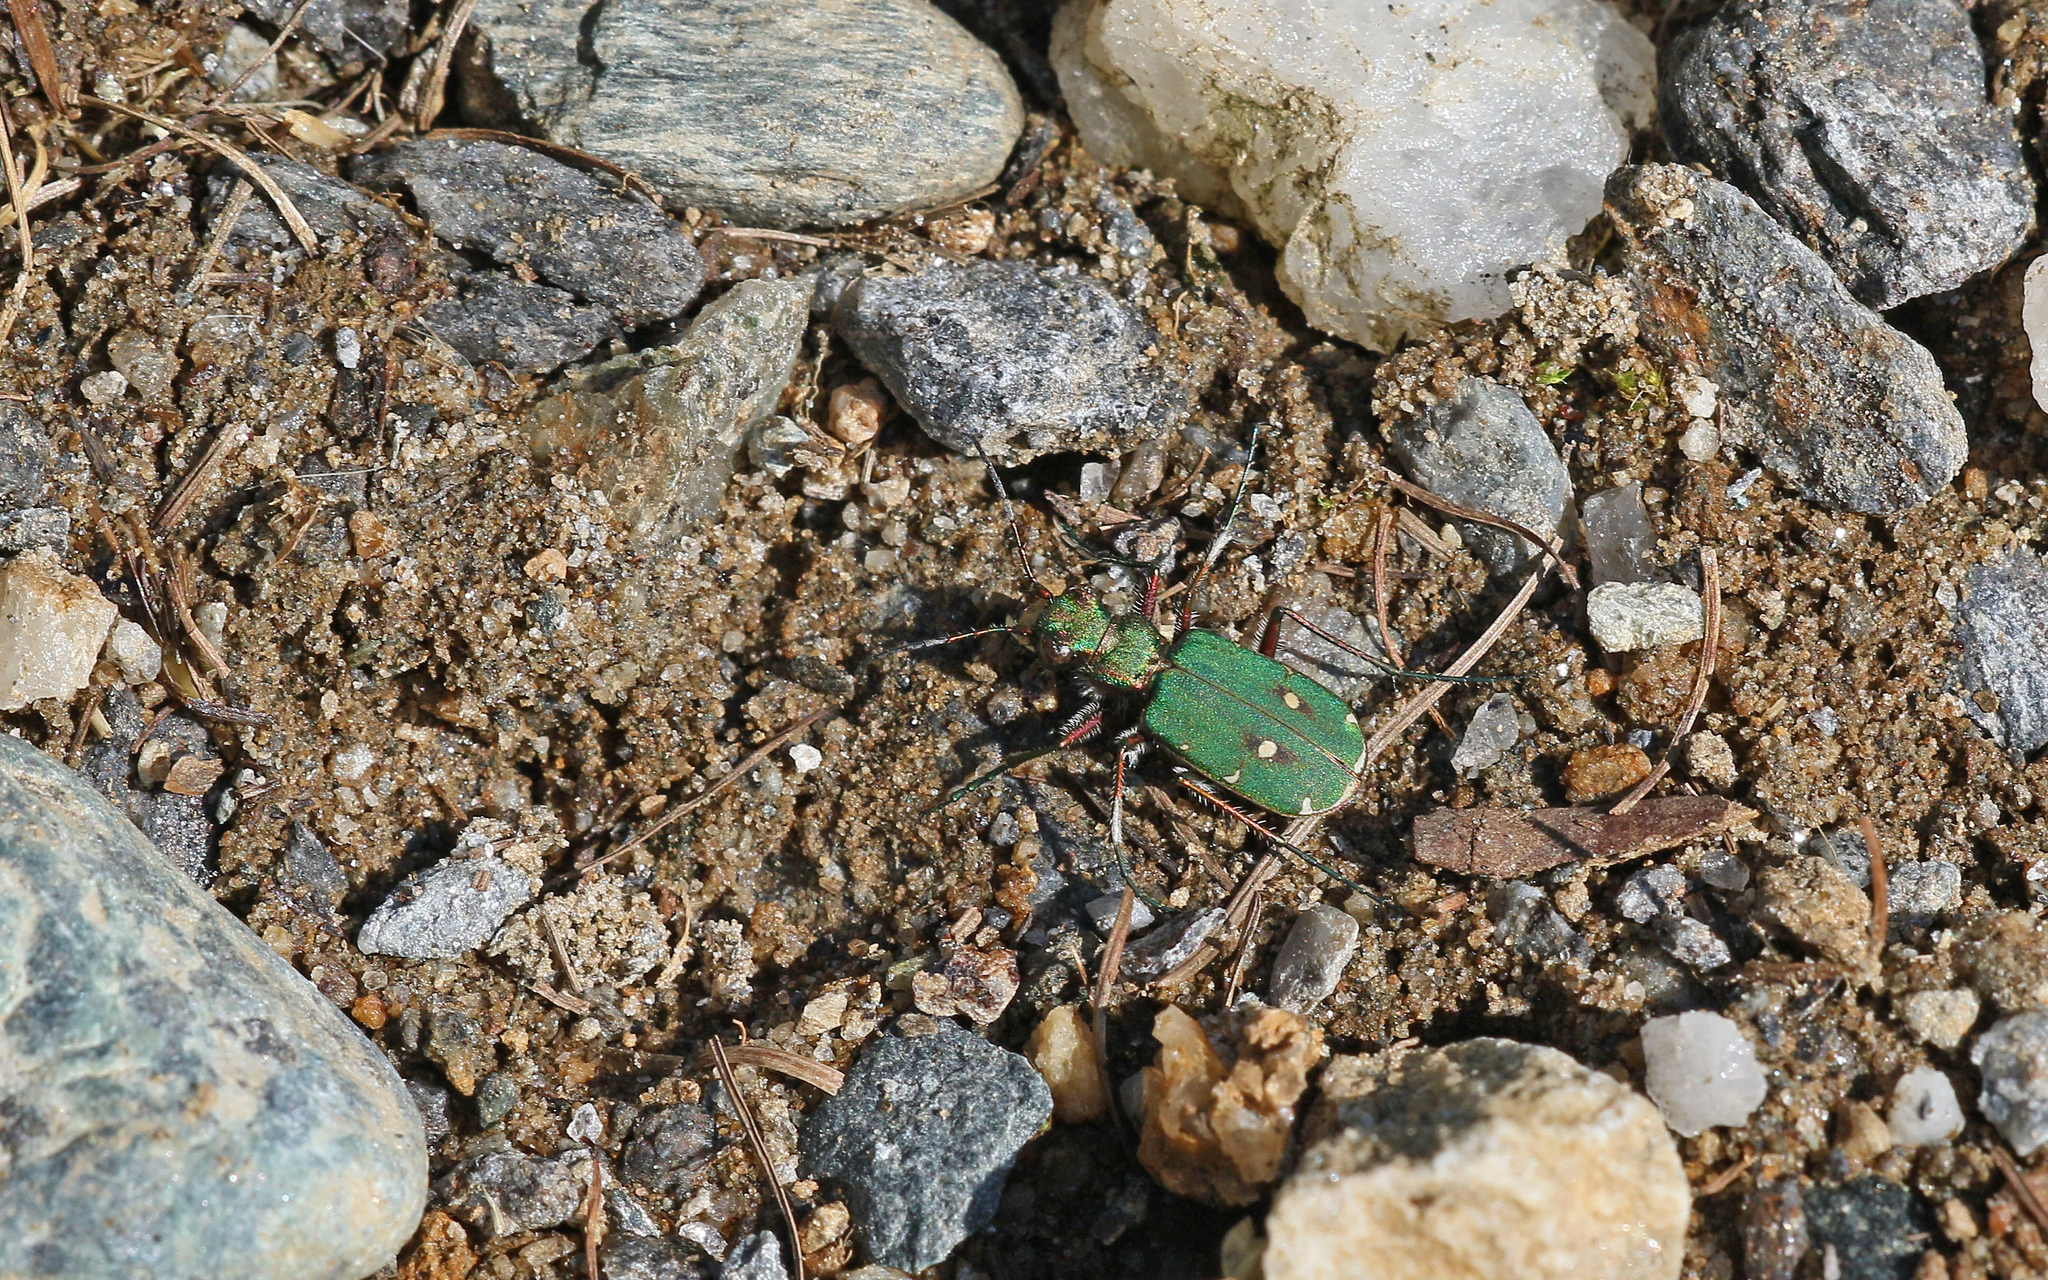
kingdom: Animalia
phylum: Arthropoda
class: Insecta
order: Coleoptera
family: Carabidae
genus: Cicindela
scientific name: Cicindela campestris
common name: Common tiger beetle
